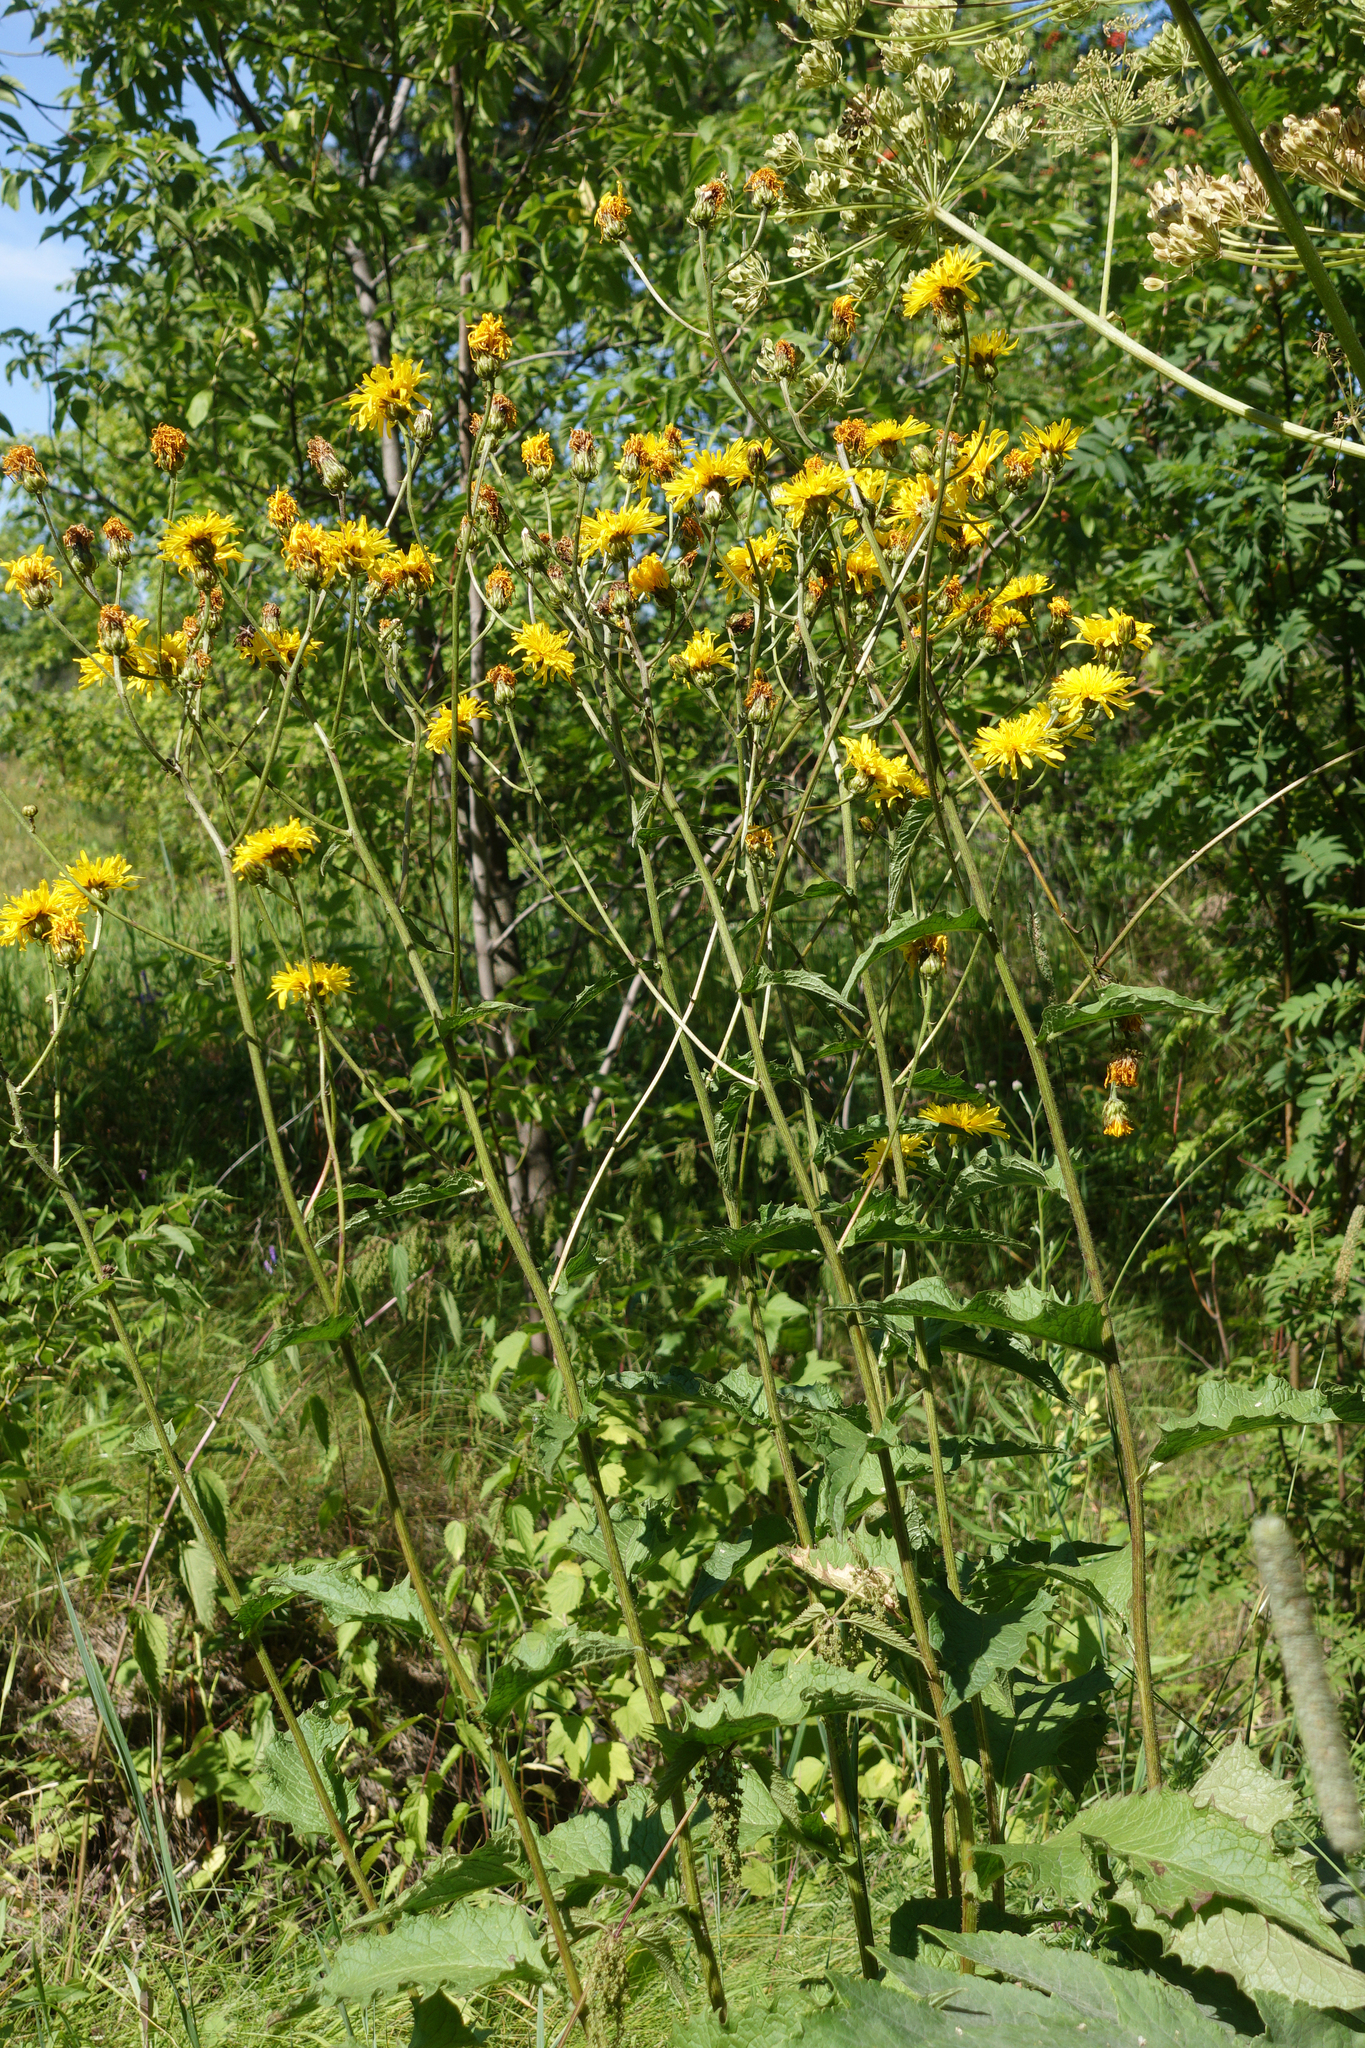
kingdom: Plantae
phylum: Tracheophyta
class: Magnoliopsida
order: Asterales
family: Asteraceae
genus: Crepis
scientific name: Crepis sibirica
